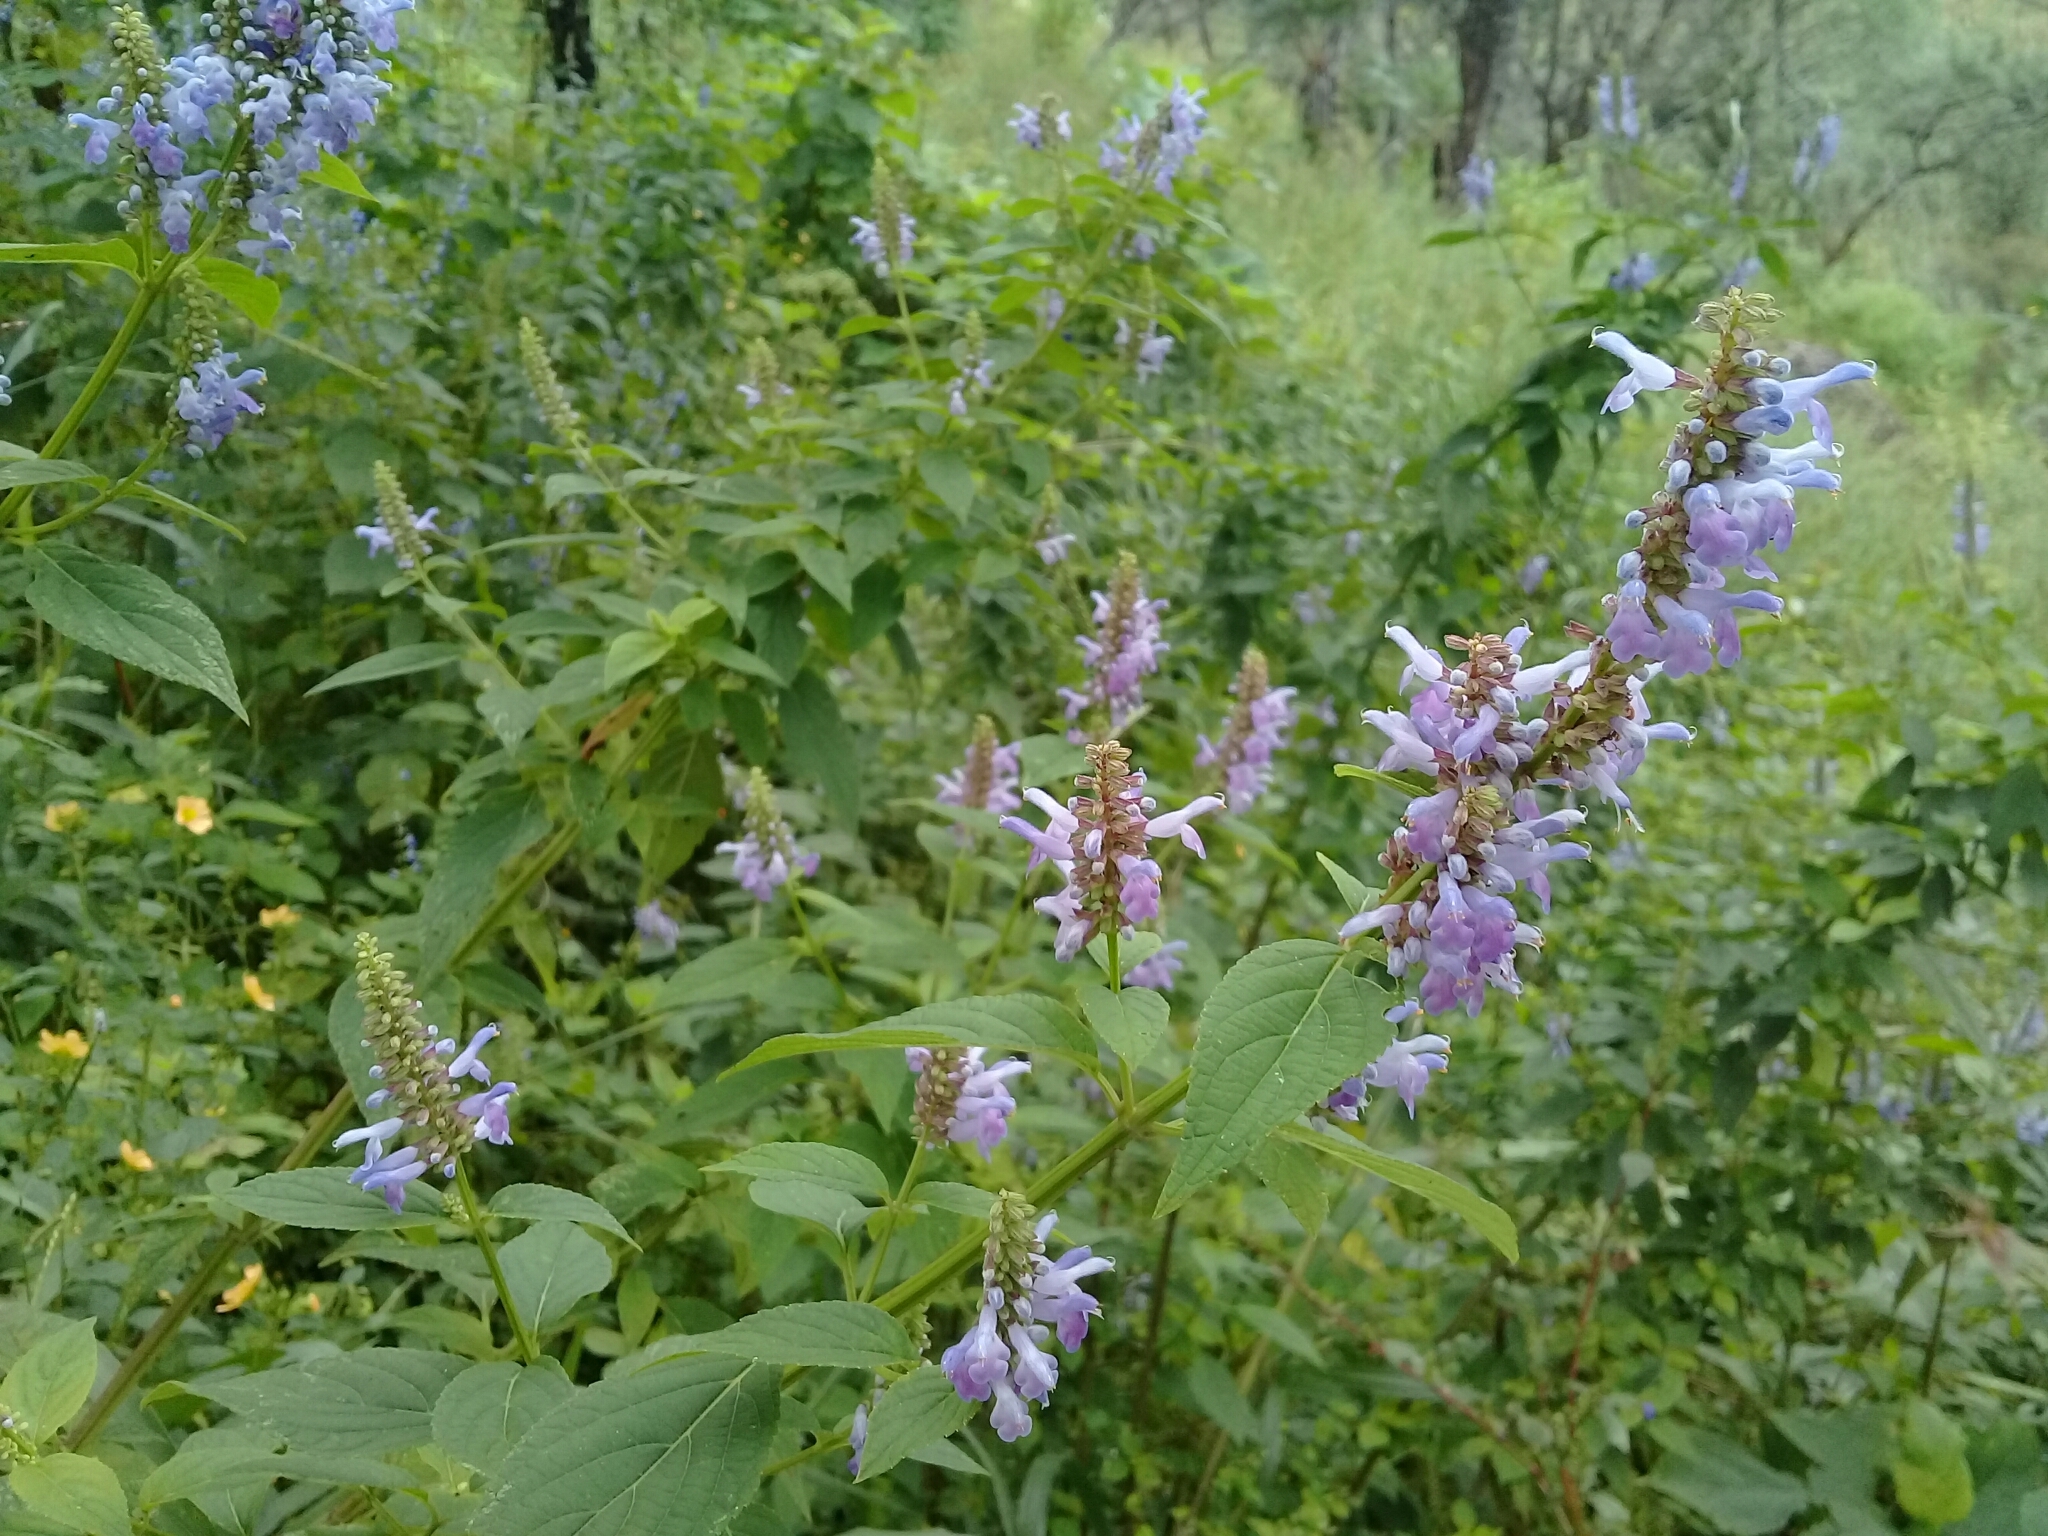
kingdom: Plantae
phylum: Tracheophyta
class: Magnoliopsida
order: Lamiales
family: Lamiaceae
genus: Salvia
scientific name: Salvia polystachia
